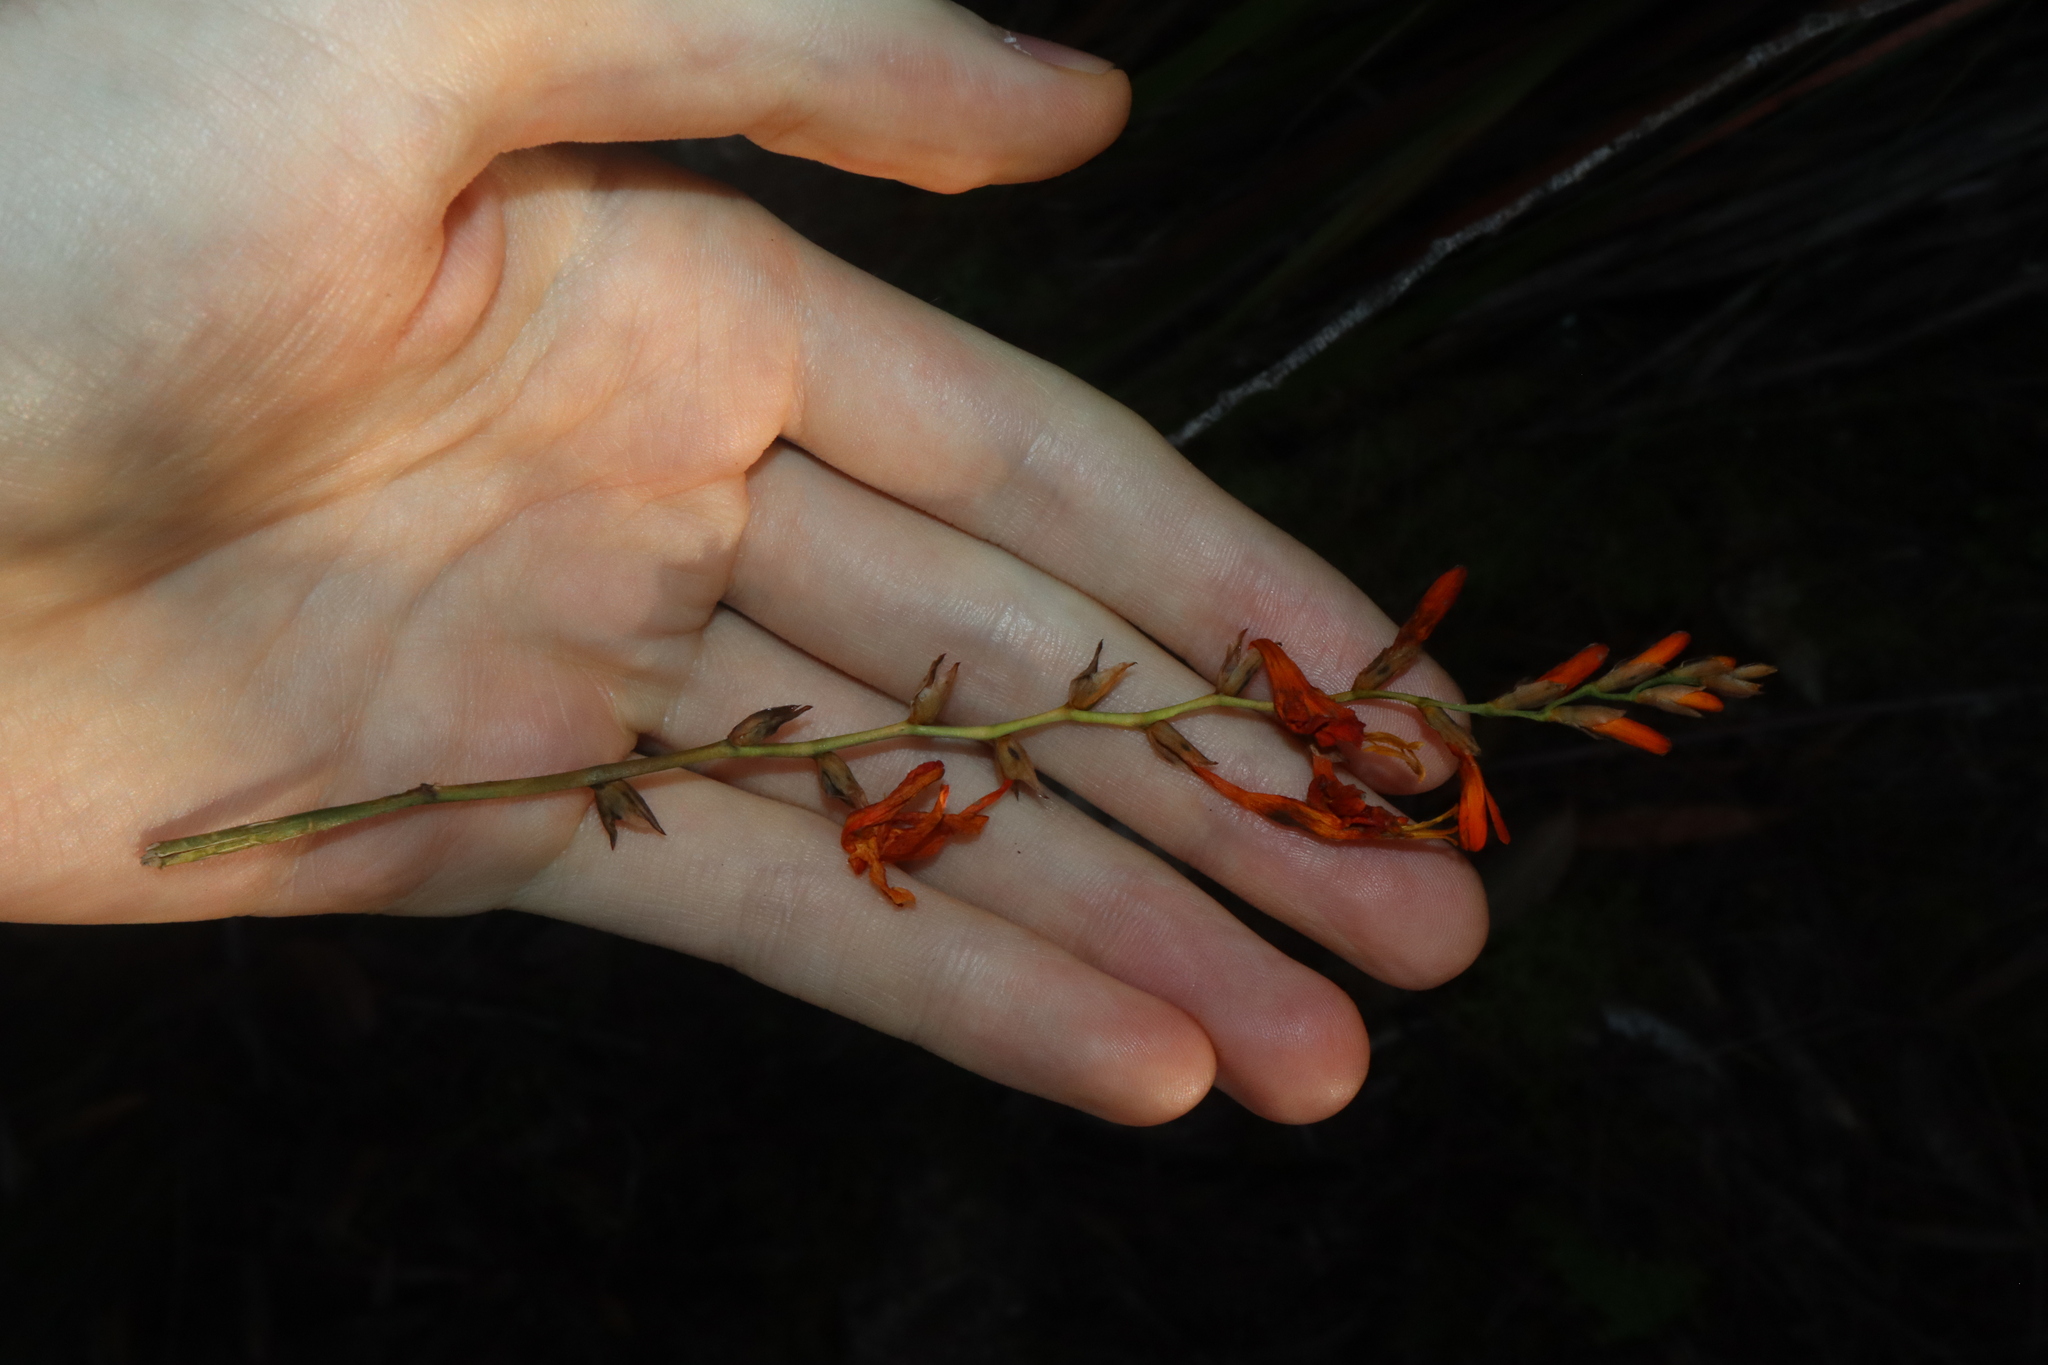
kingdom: Plantae
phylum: Tracheophyta
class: Liliopsida
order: Asparagales
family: Iridaceae
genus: Crocosmia
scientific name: Crocosmia crocosmiiflora
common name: Montbretia
